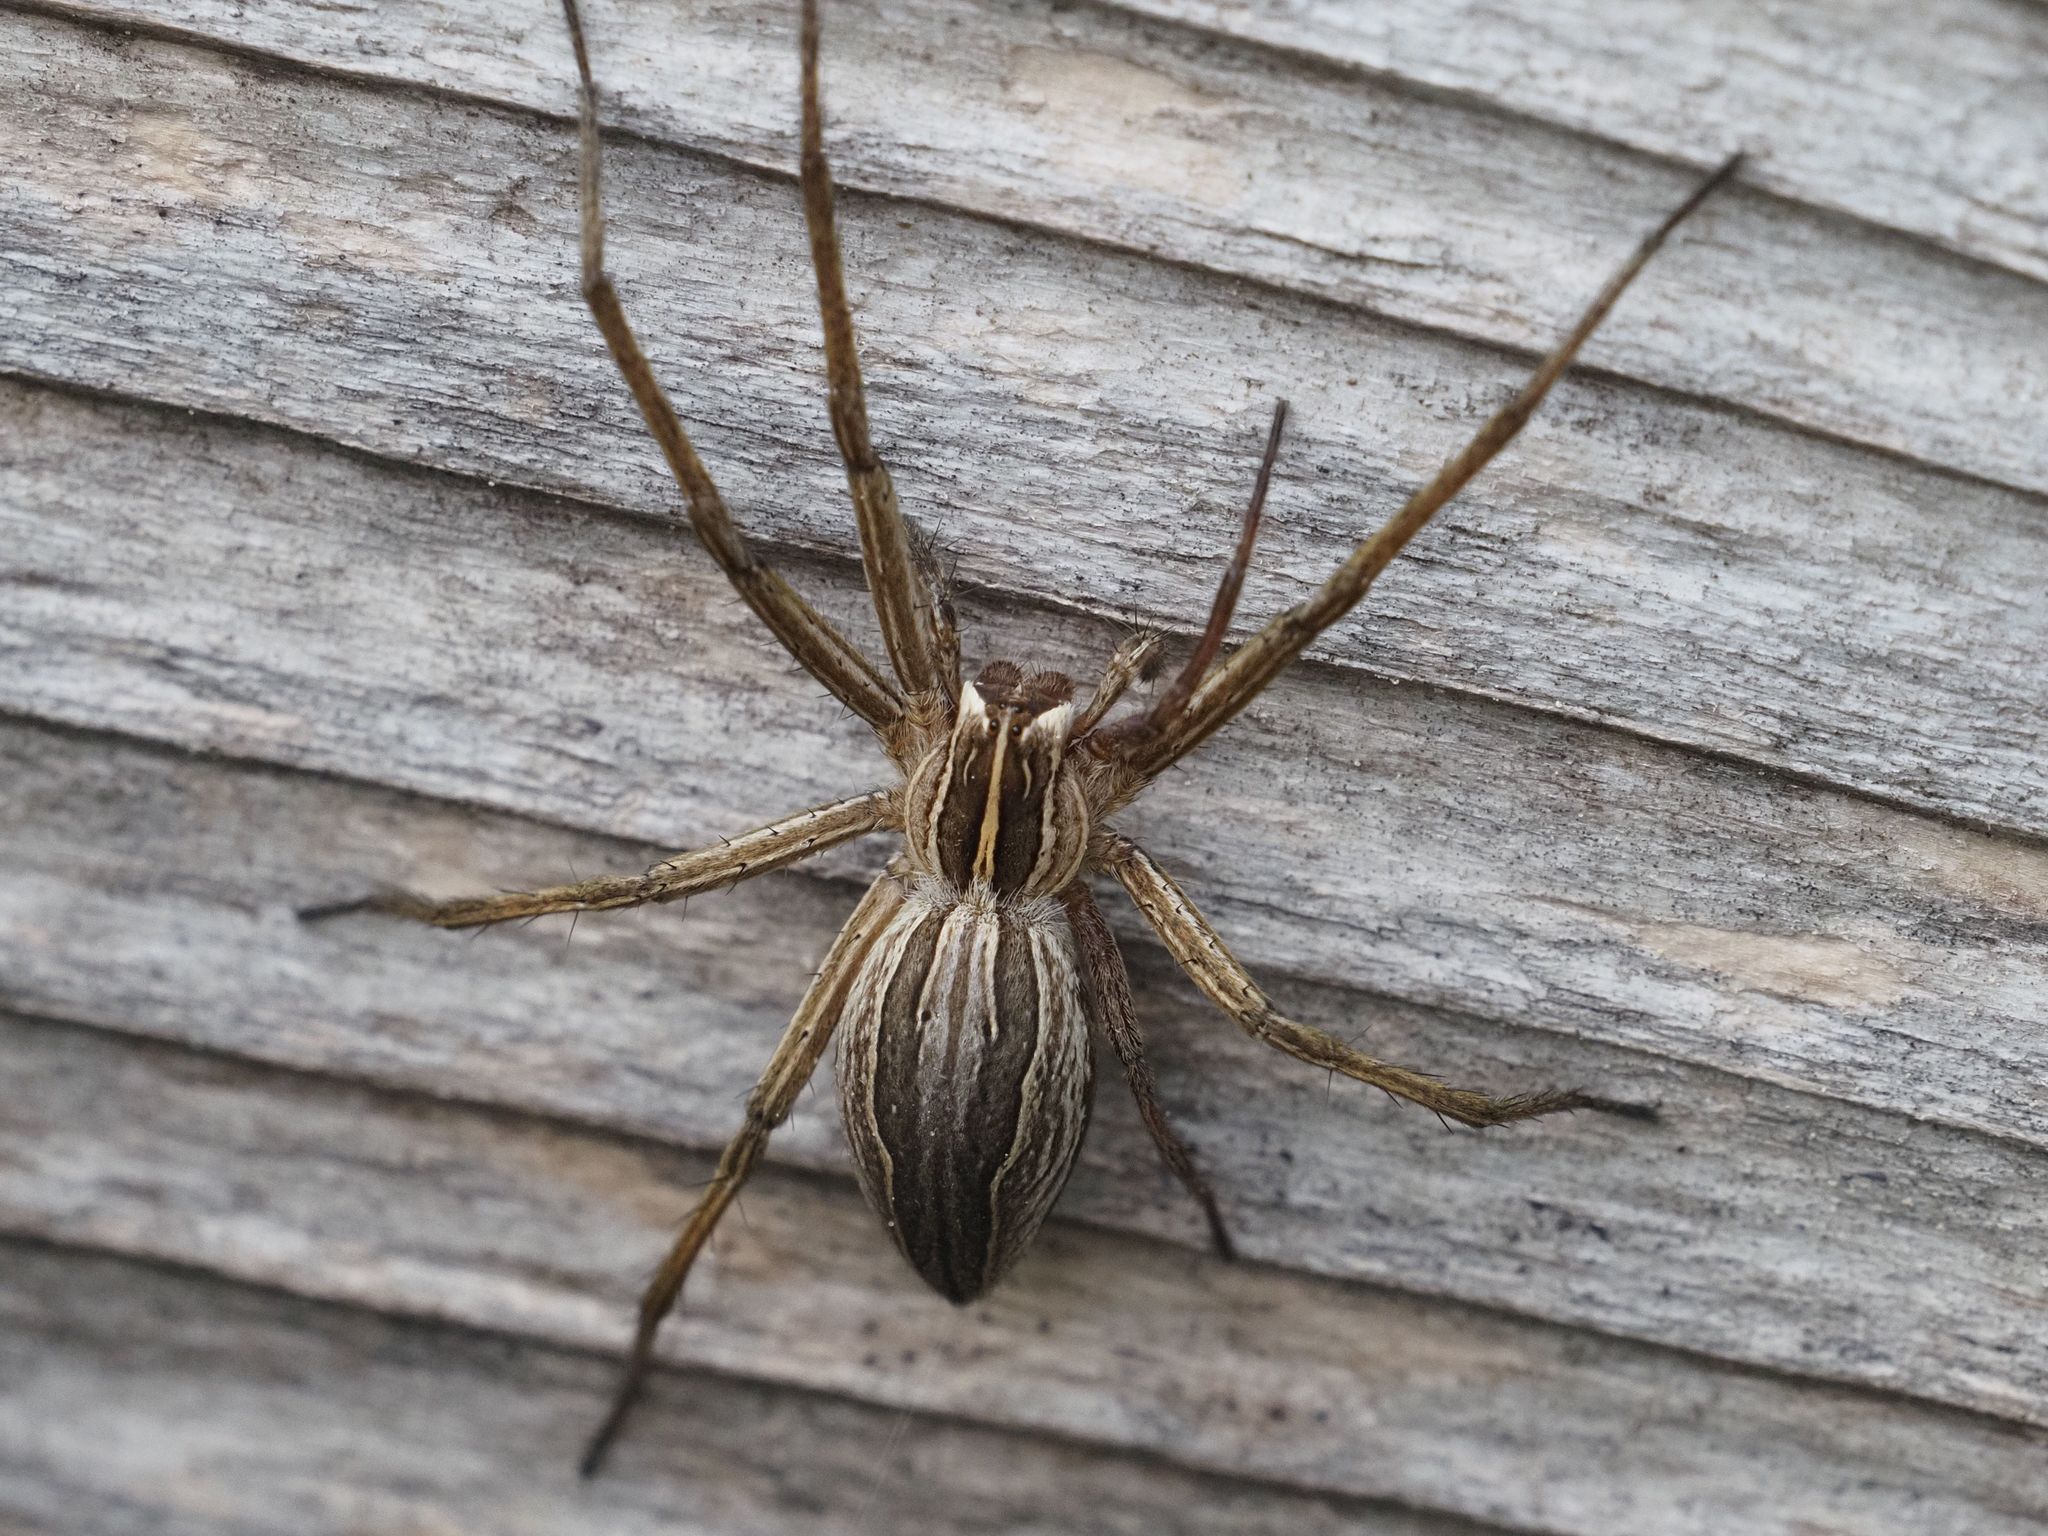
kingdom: Animalia
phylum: Arthropoda
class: Arachnida
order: Araneae
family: Pisauridae
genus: Pisaura
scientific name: Pisaura mirabilis
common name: Tent spider
